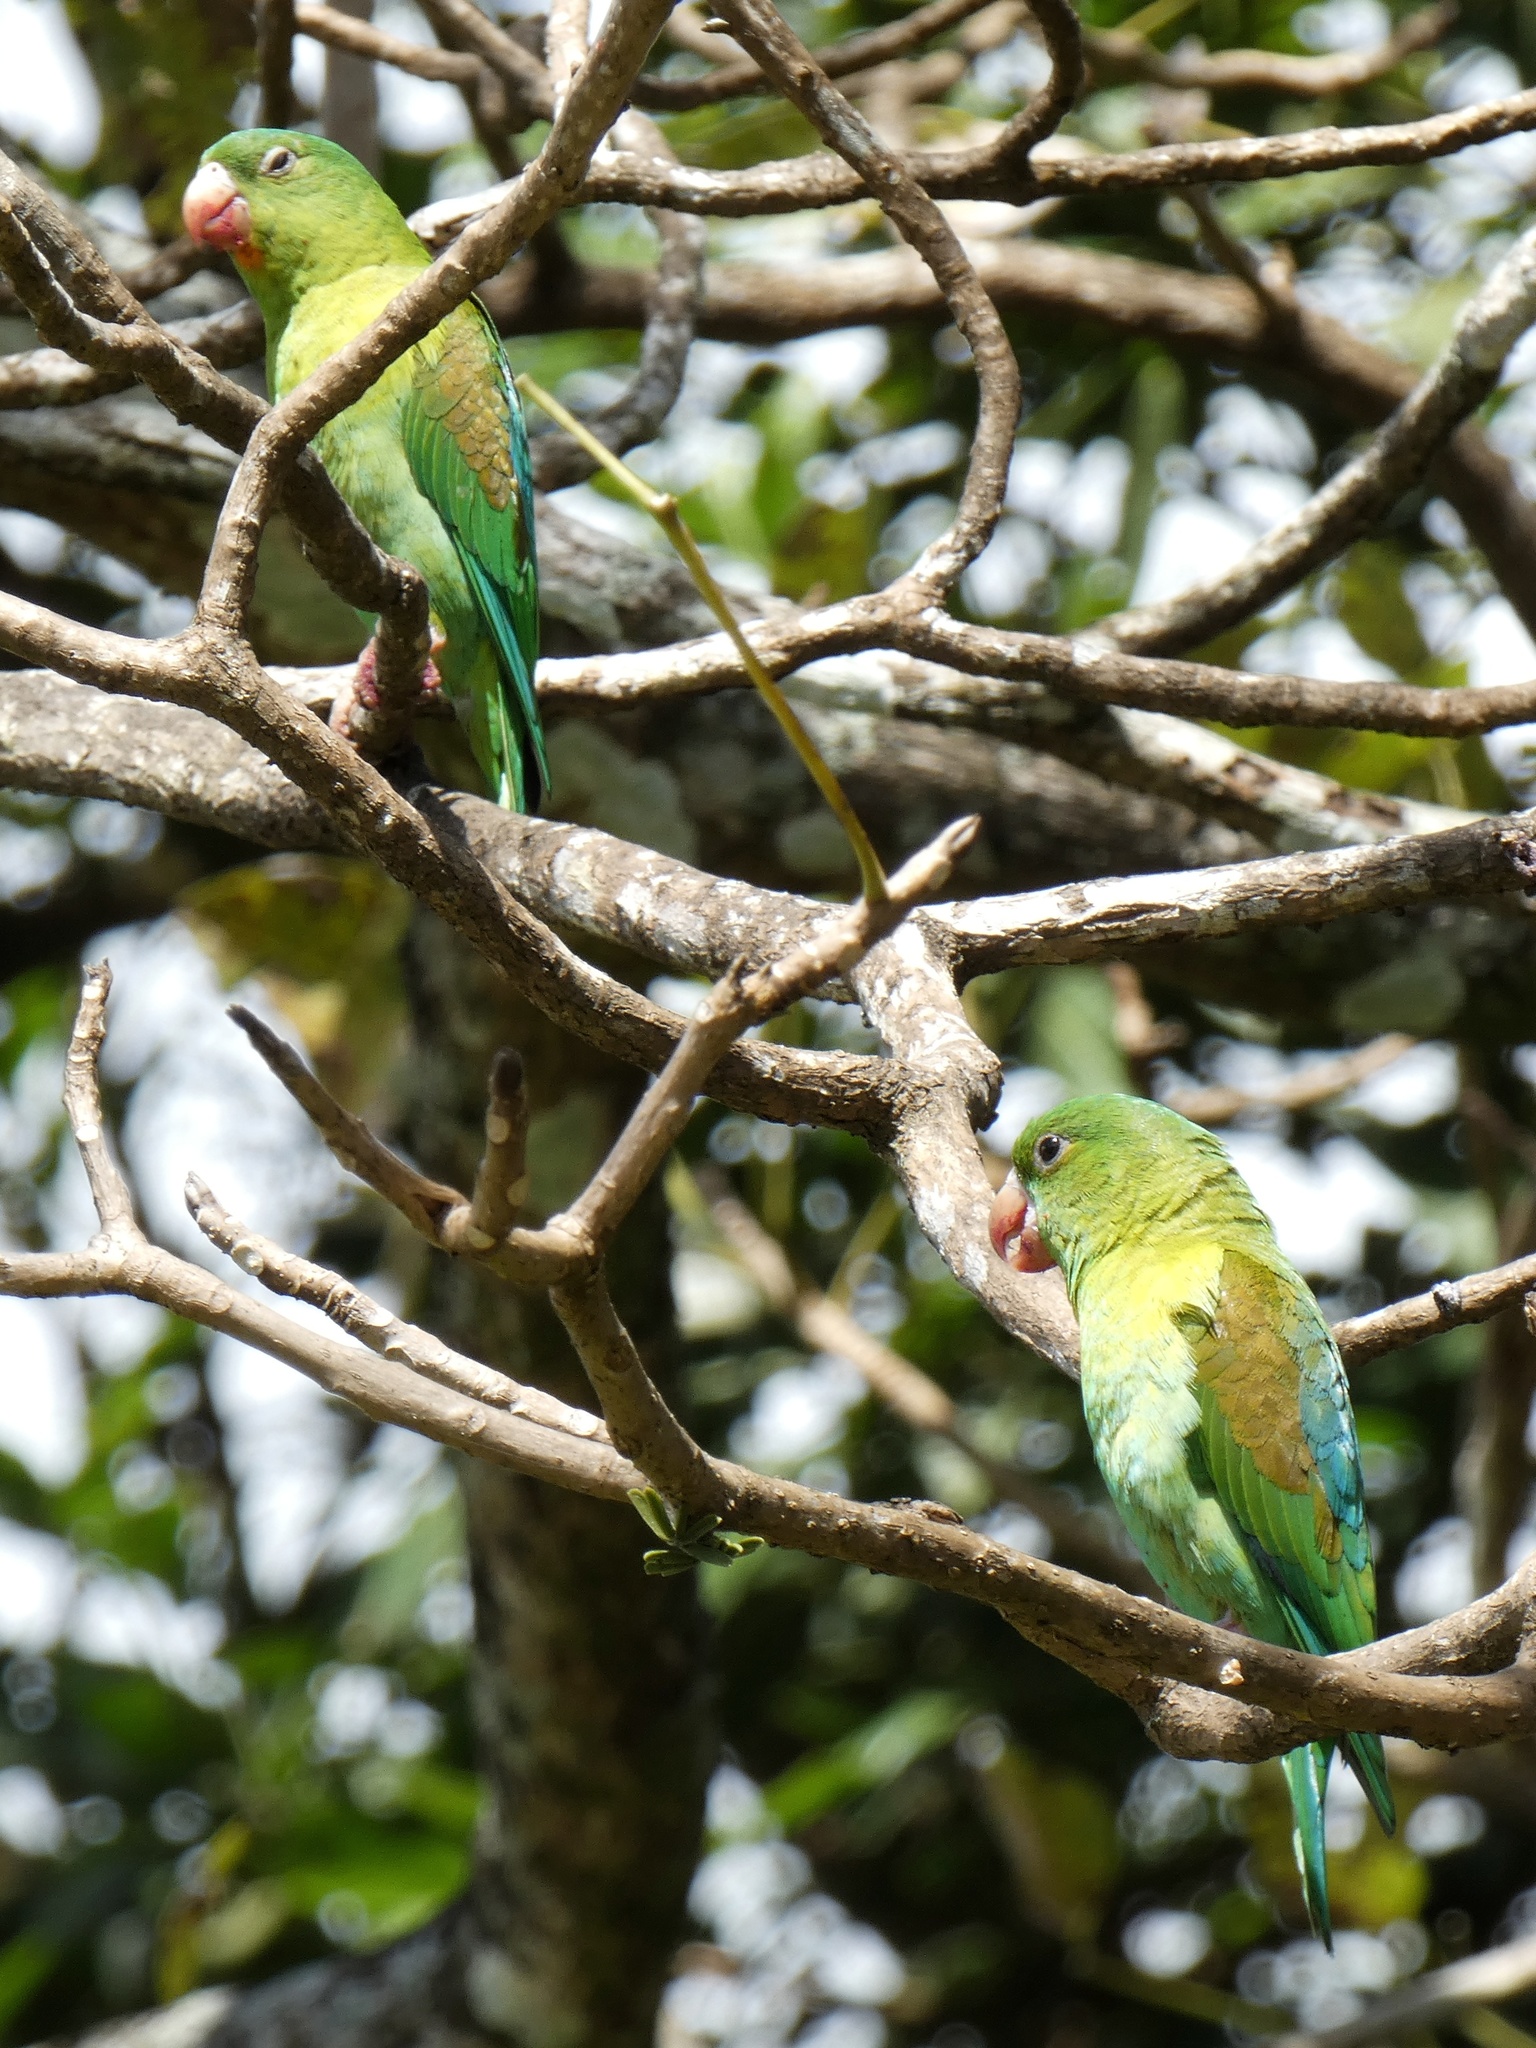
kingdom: Animalia
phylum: Chordata
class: Aves
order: Psittaciformes
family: Psittacidae
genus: Brotogeris
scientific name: Brotogeris jugularis
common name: Orange-chinned parakeet
